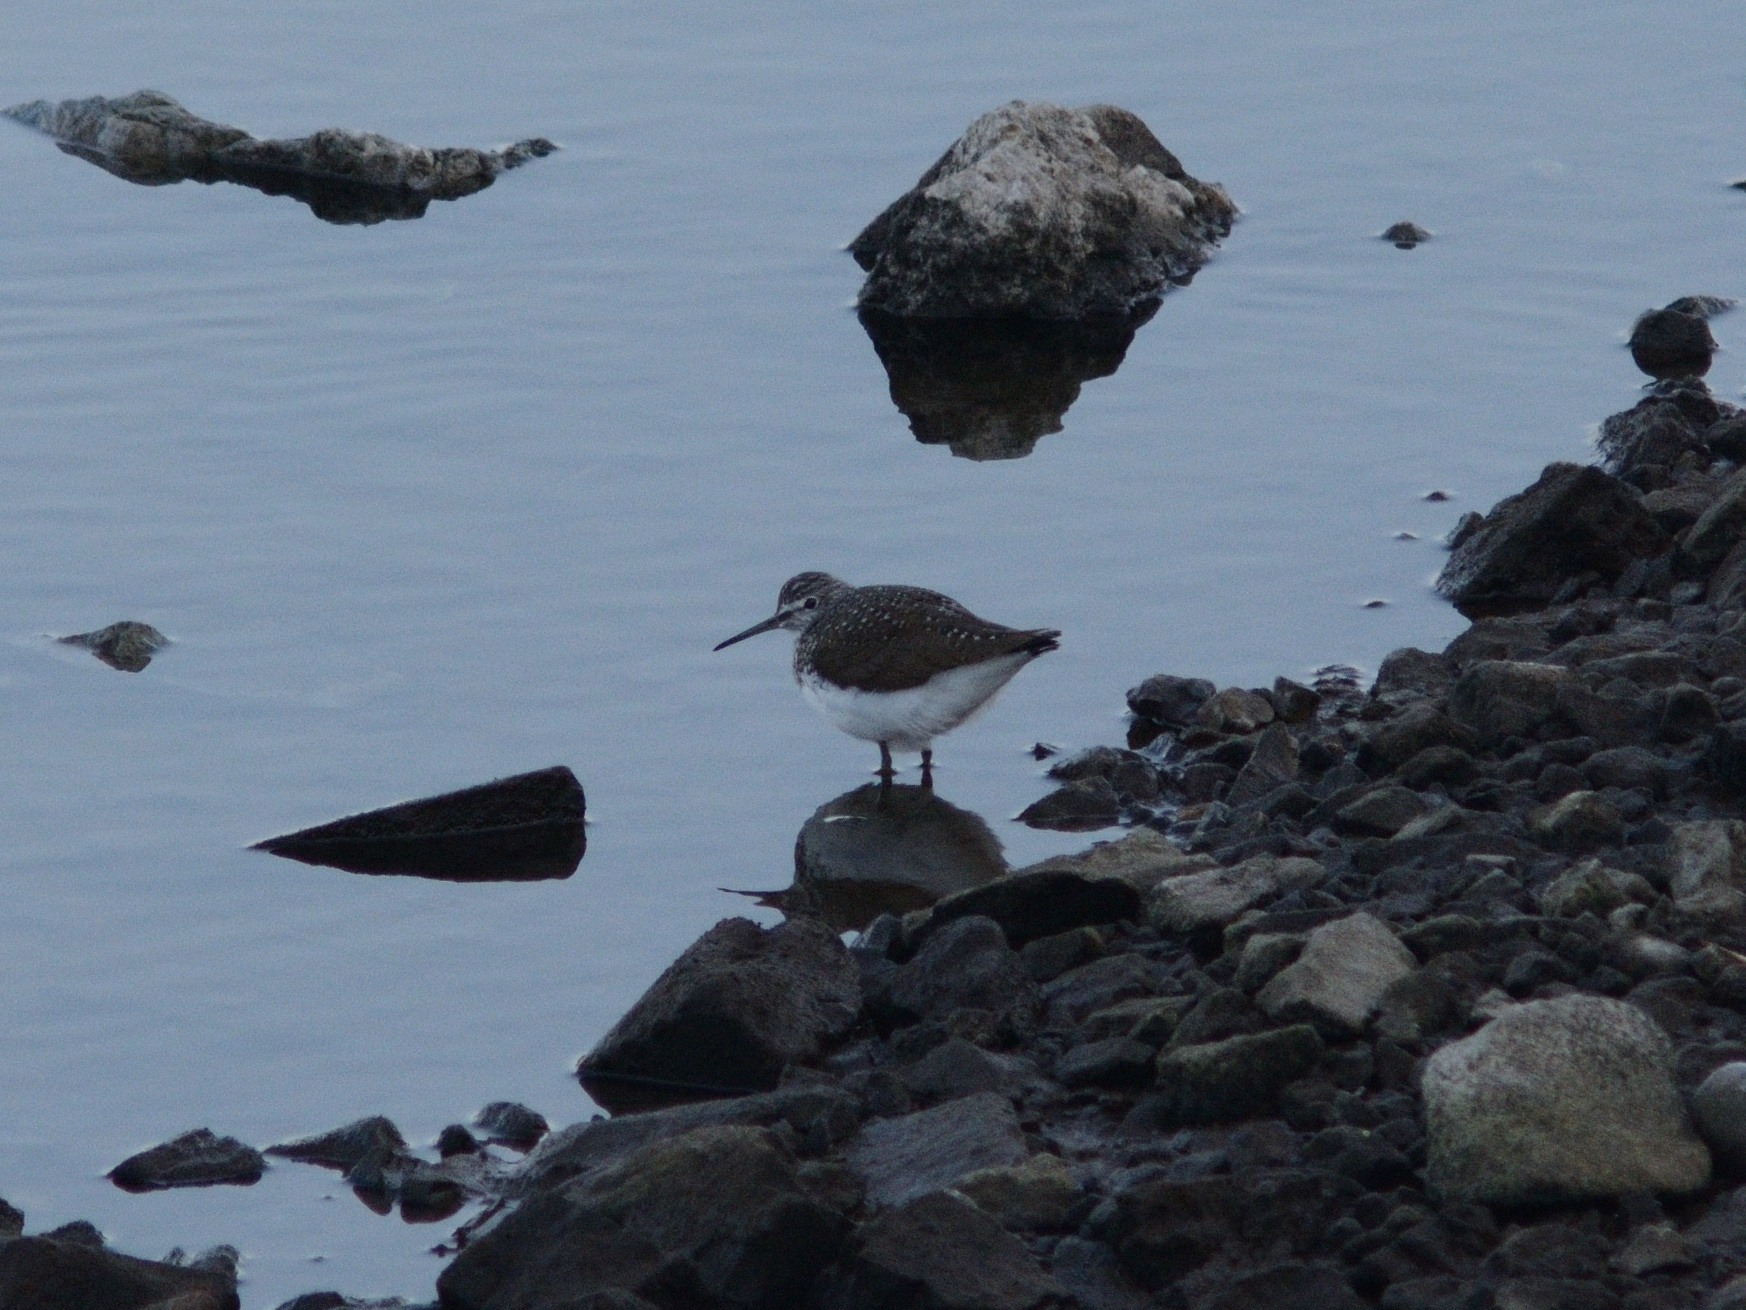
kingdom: Animalia
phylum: Chordata
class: Aves
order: Charadriiformes
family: Scolopacidae
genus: Tringa
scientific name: Tringa ochropus
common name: Green sandpiper
